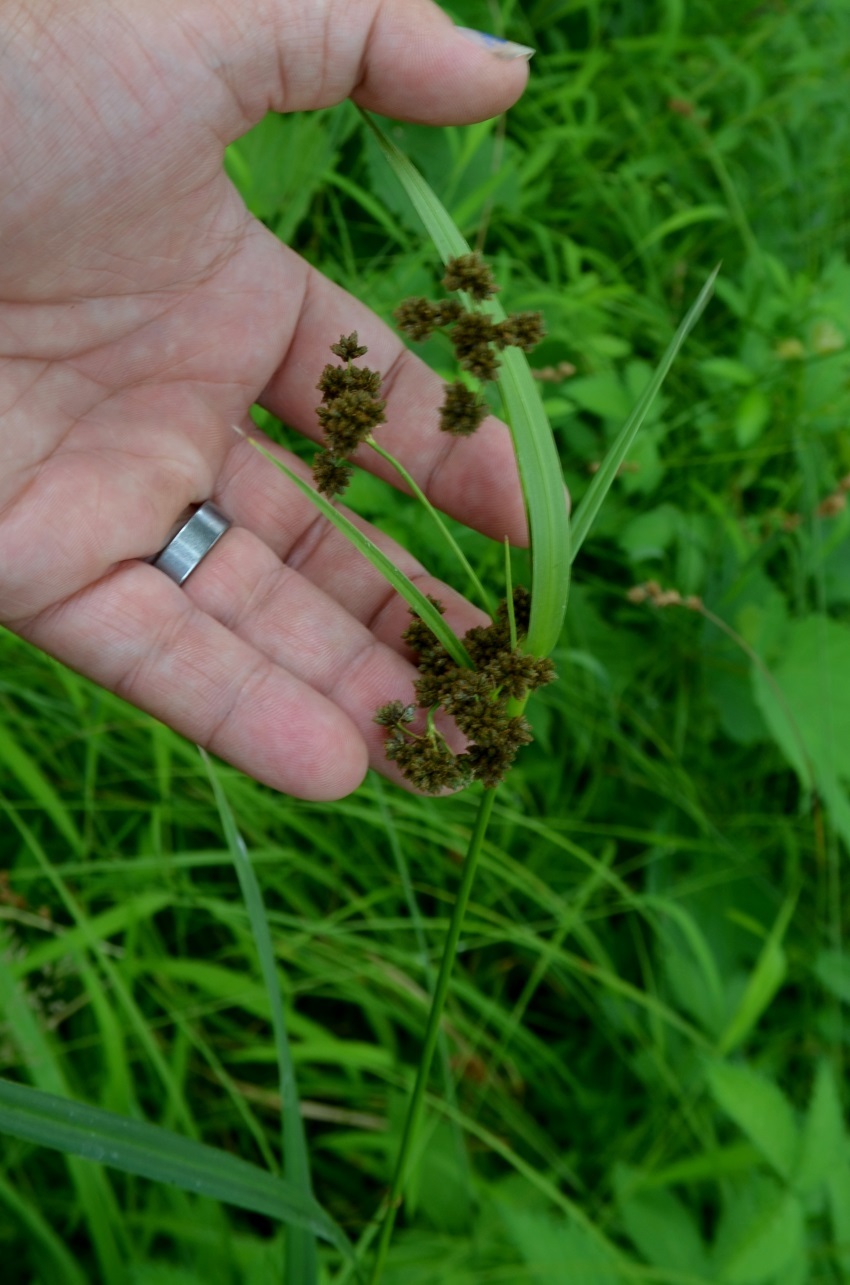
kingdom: Plantae
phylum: Tracheophyta
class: Liliopsida
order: Poales
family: Cyperaceae
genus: Scirpus
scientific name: Scirpus atrovirens
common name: Black bulrush
